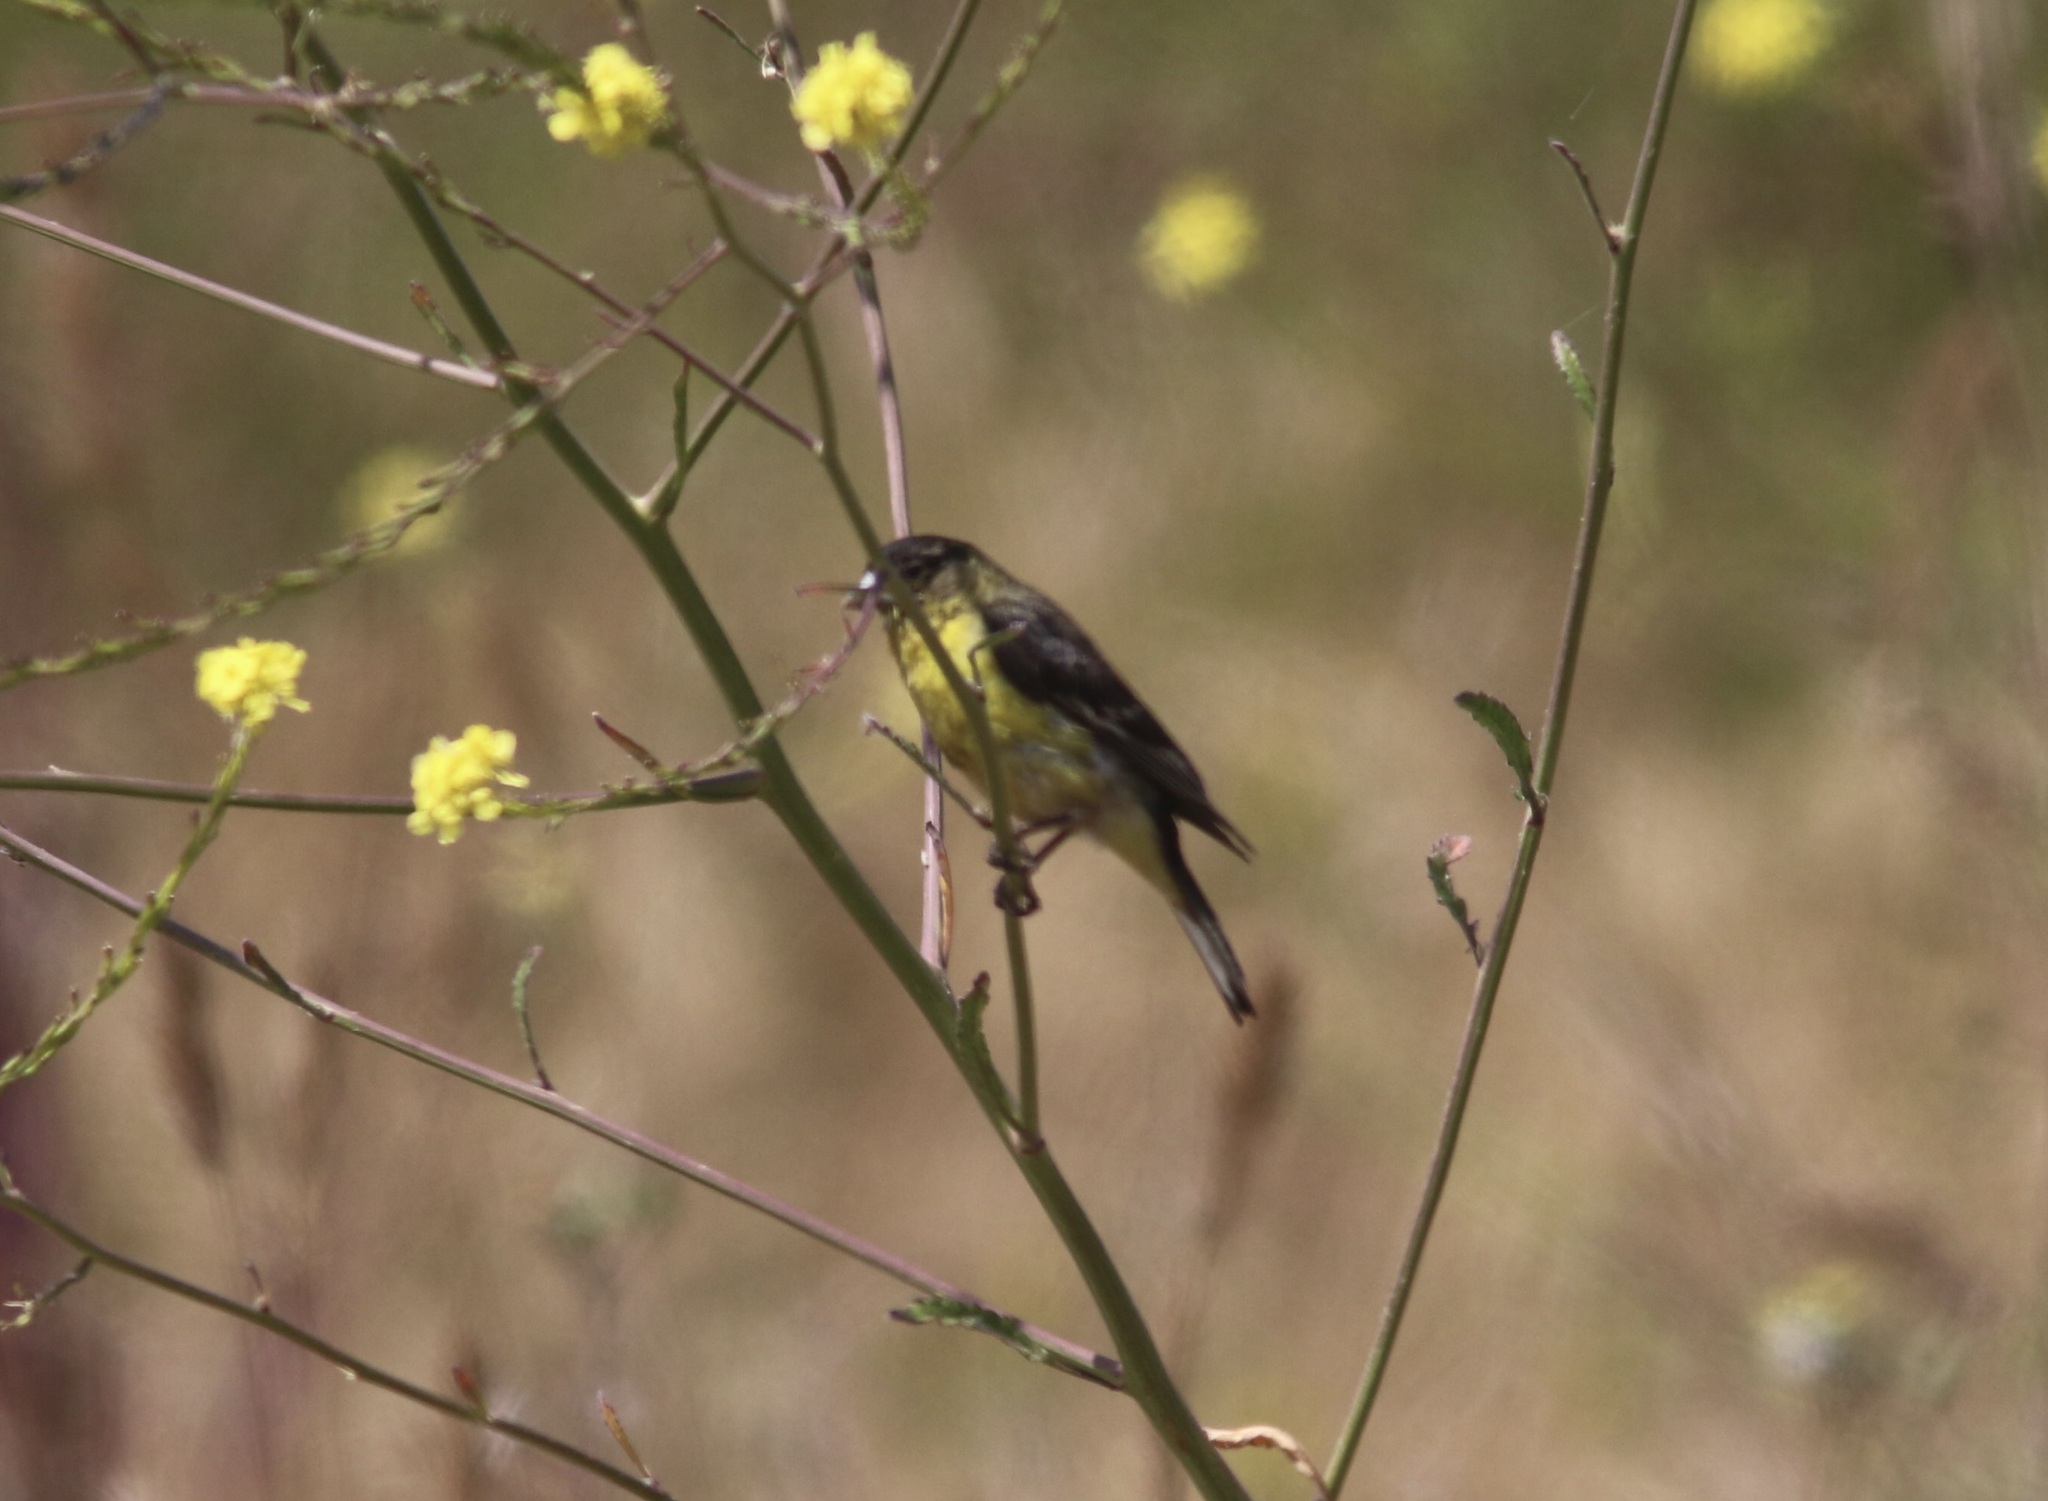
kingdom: Animalia
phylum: Chordata
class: Aves
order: Passeriformes
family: Fringillidae
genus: Spinus
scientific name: Spinus psaltria
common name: Lesser goldfinch
